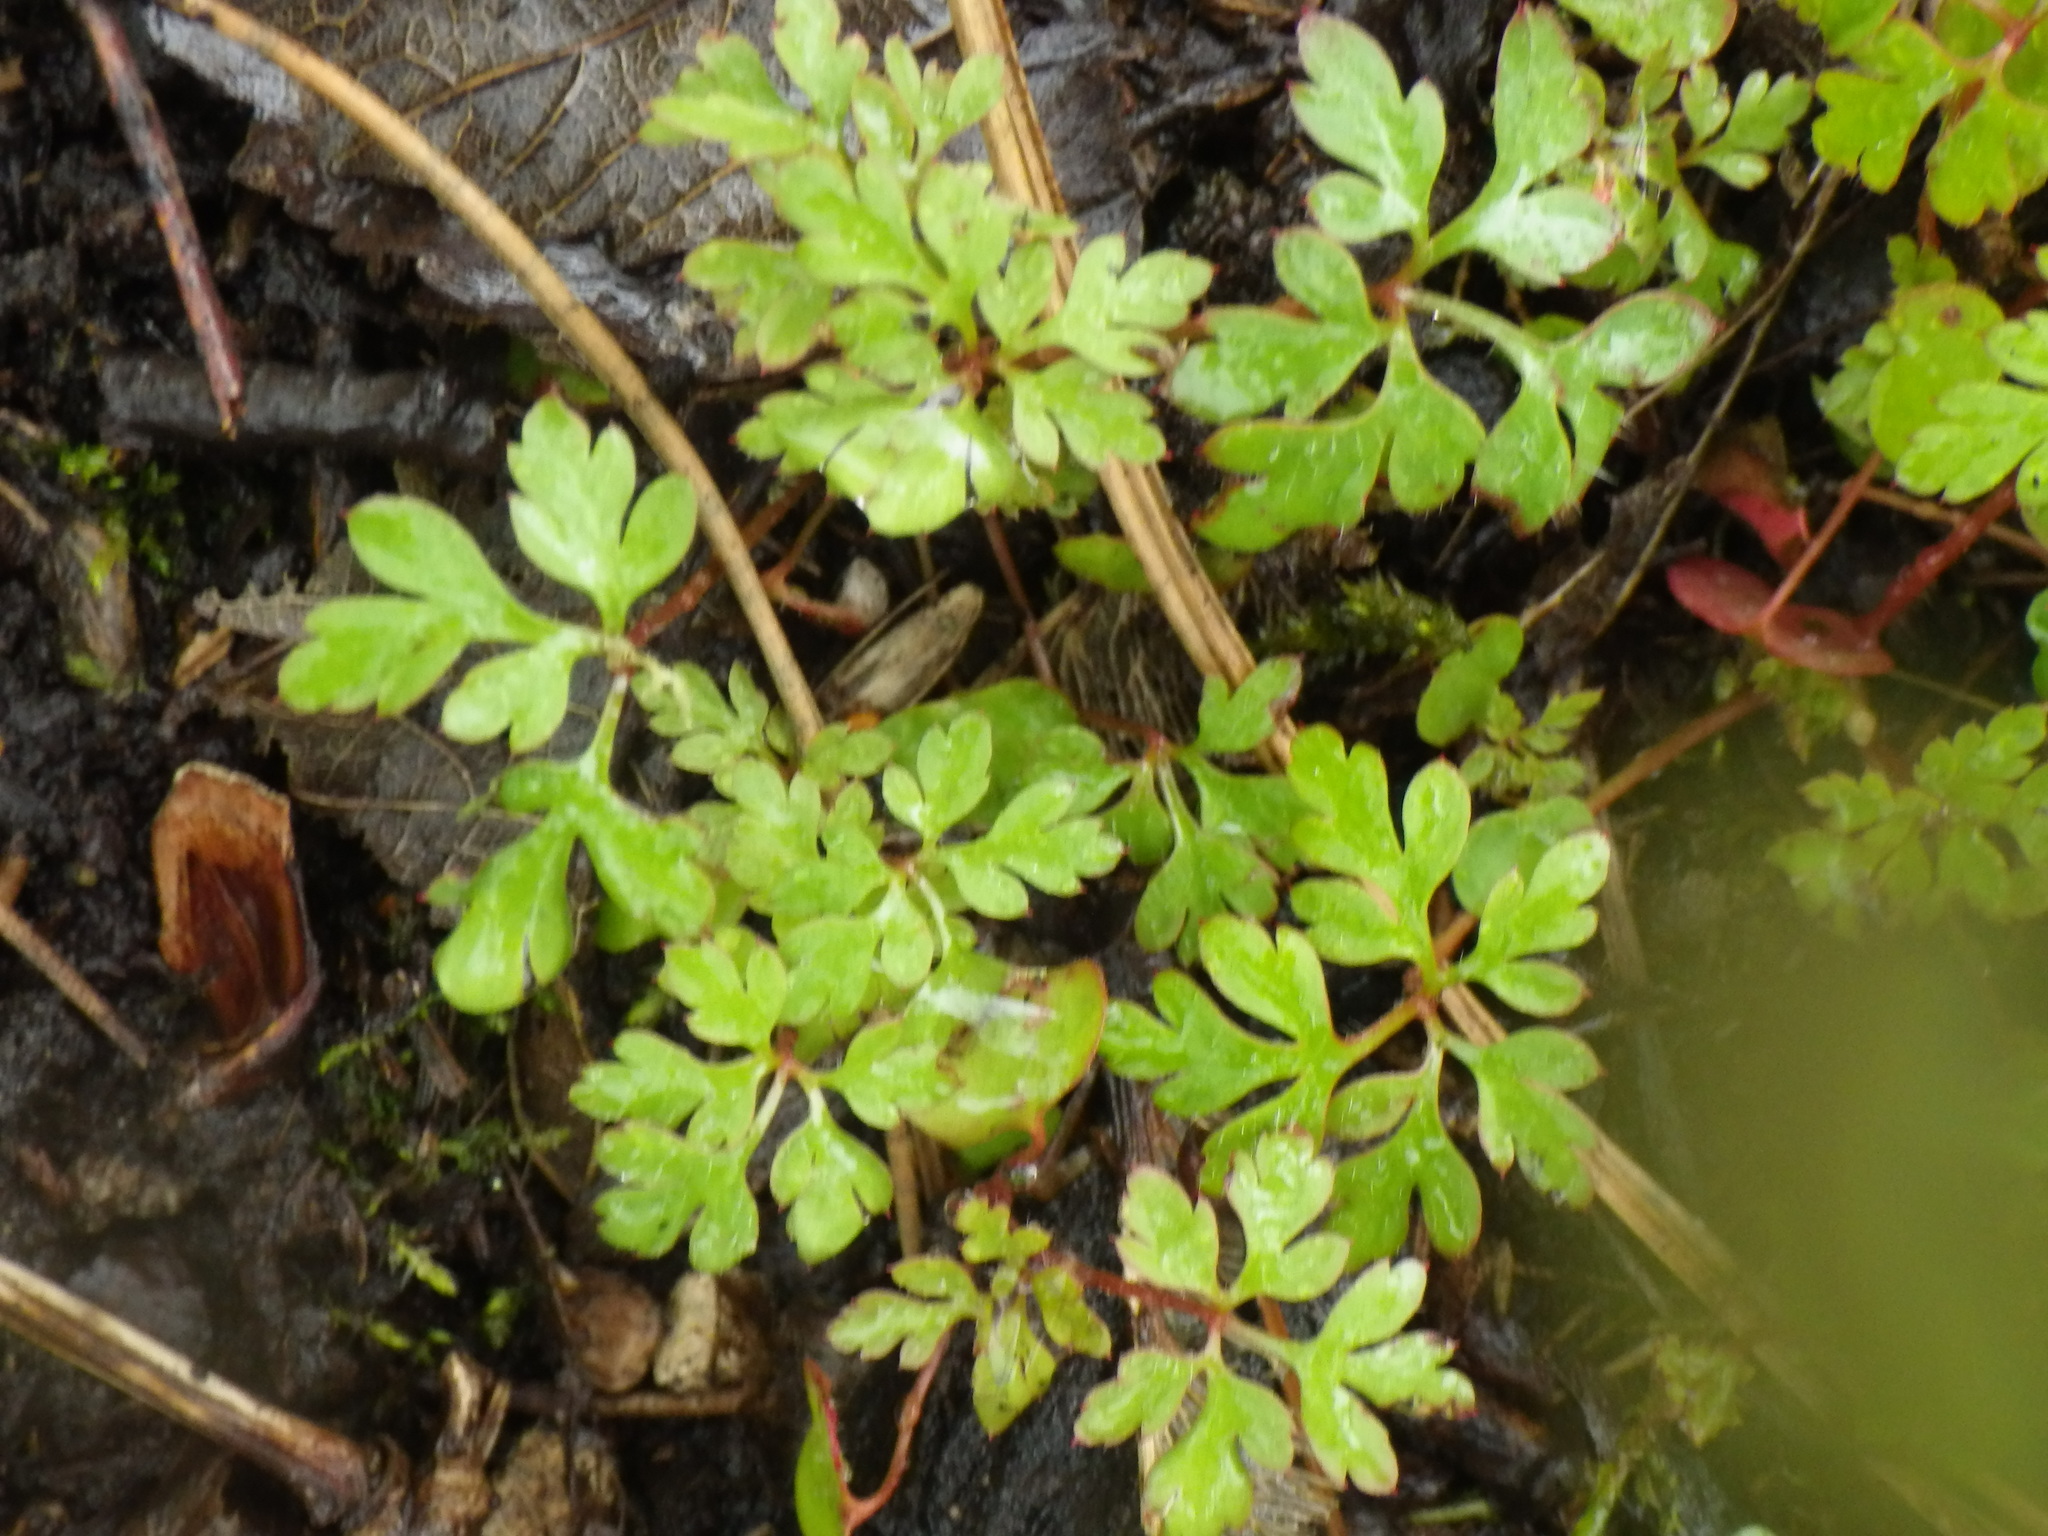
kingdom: Plantae
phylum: Tracheophyta
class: Magnoliopsida
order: Geraniales
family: Geraniaceae
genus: Geranium
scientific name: Geranium robertianum
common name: Herb-robert
